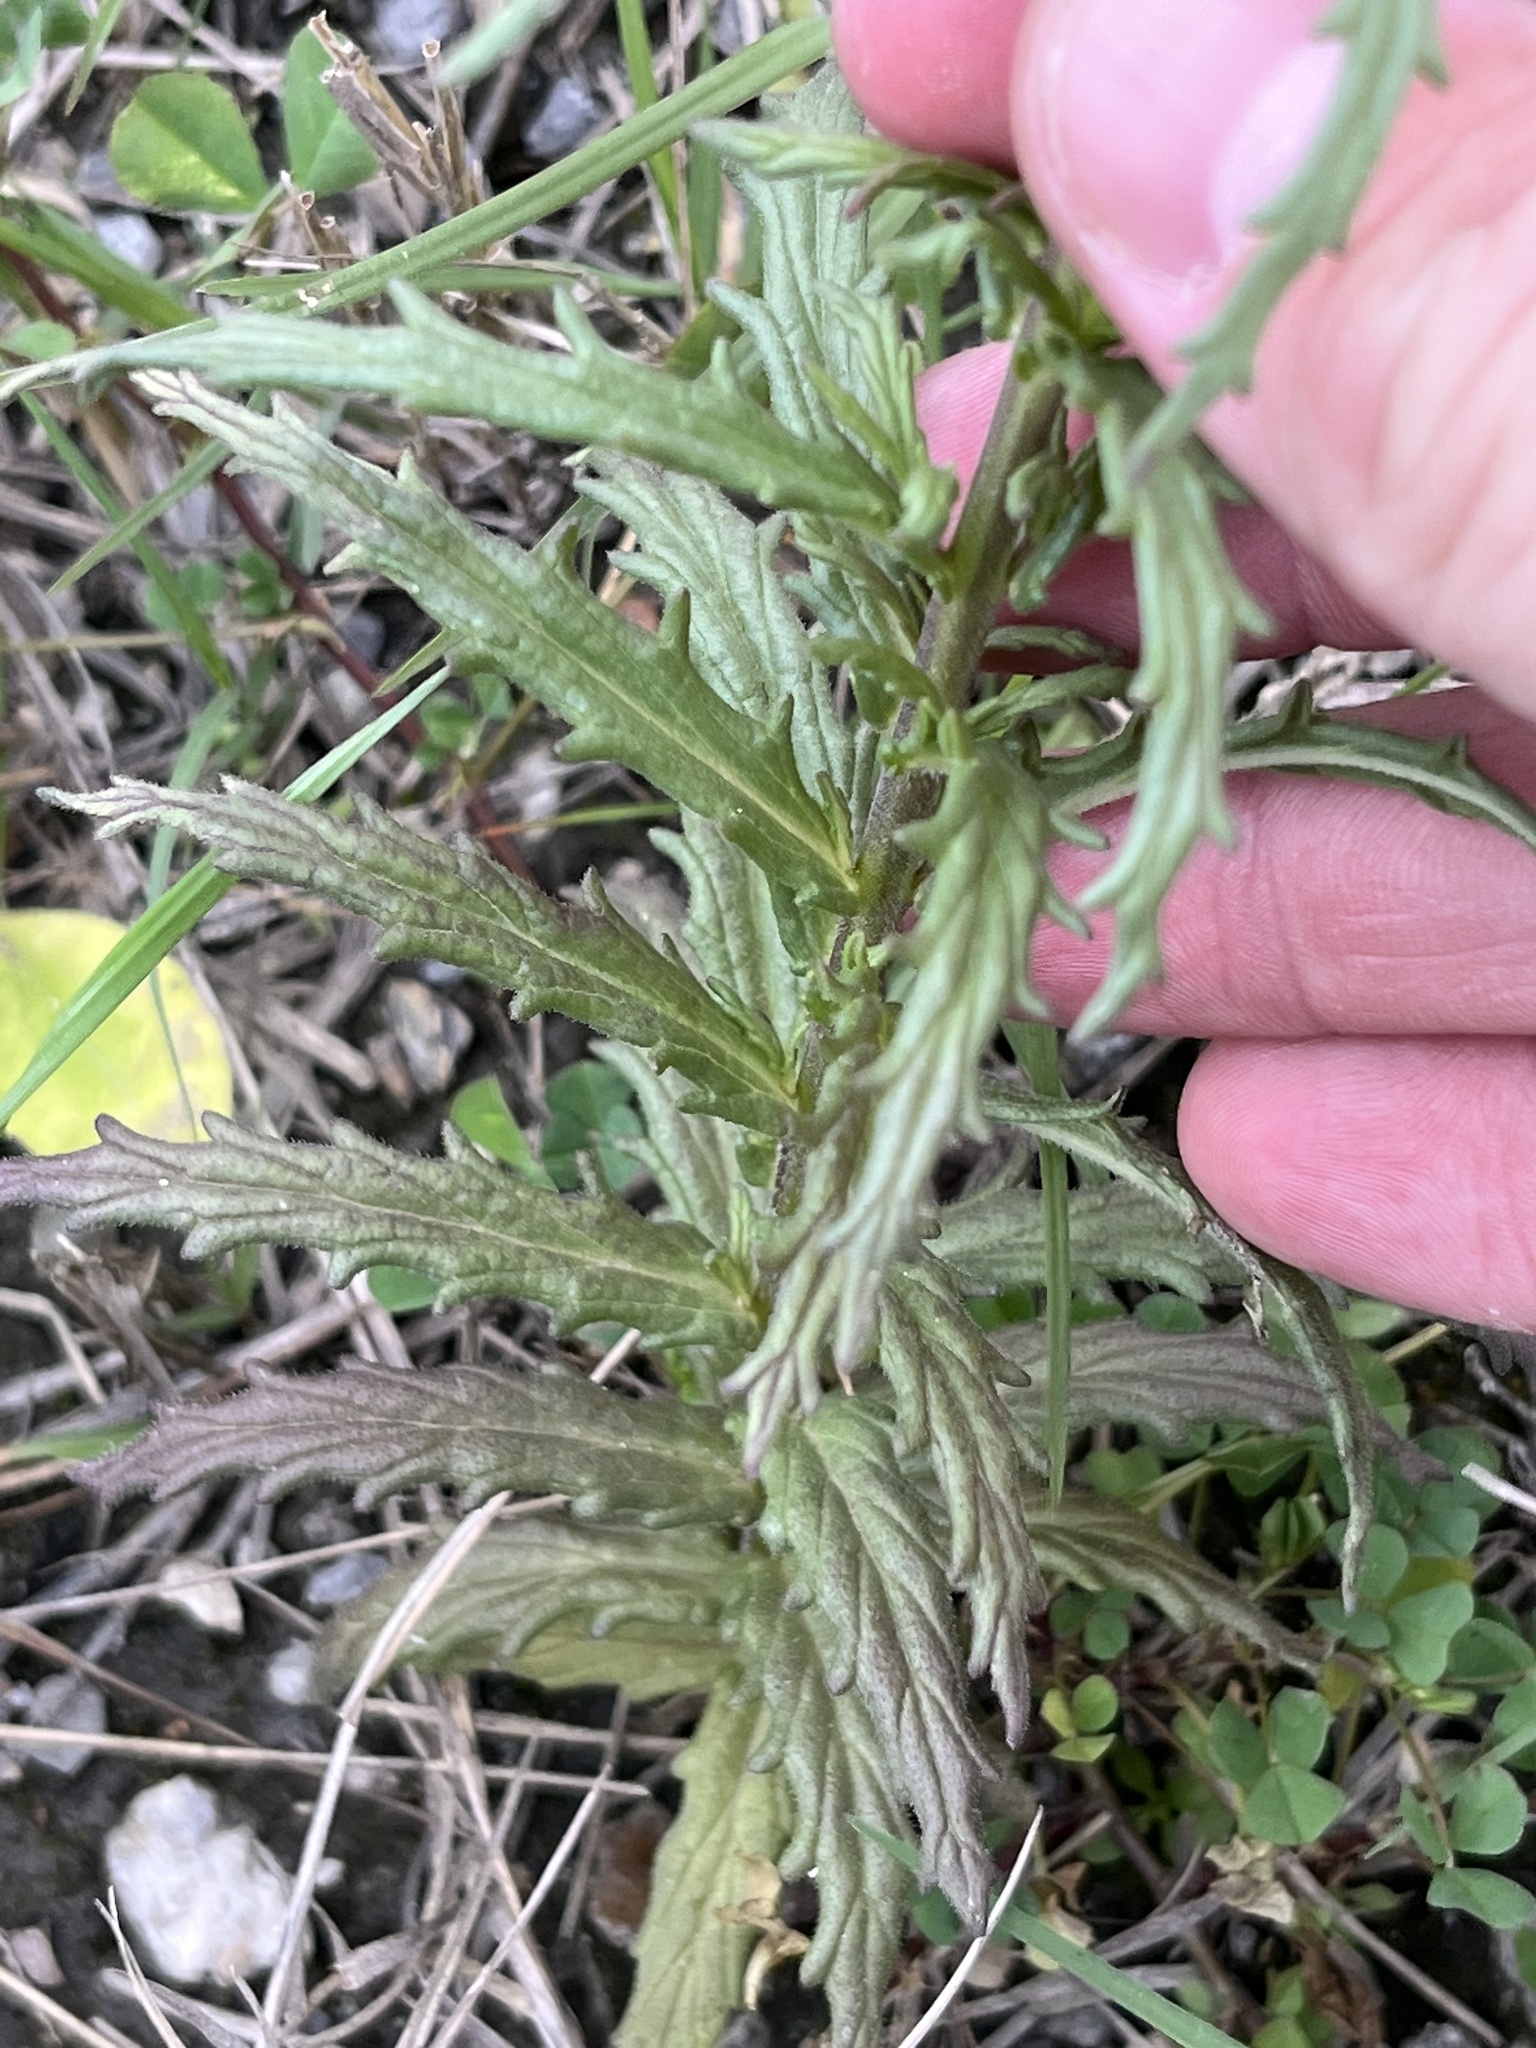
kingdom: Plantae
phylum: Tracheophyta
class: Magnoliopsida
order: Lamiales
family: Orobanchaceae
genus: Bellardia
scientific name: Bellardia trixago
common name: Mediterranean lineseed
